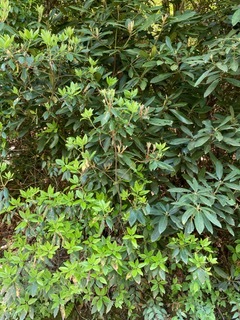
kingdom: Plantae
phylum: Tracheophyta
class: Magnoliopsida
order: Ericales
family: Ericaceae
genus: Rhododendron
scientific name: Rhododendron maximum
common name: Great rhododendron
